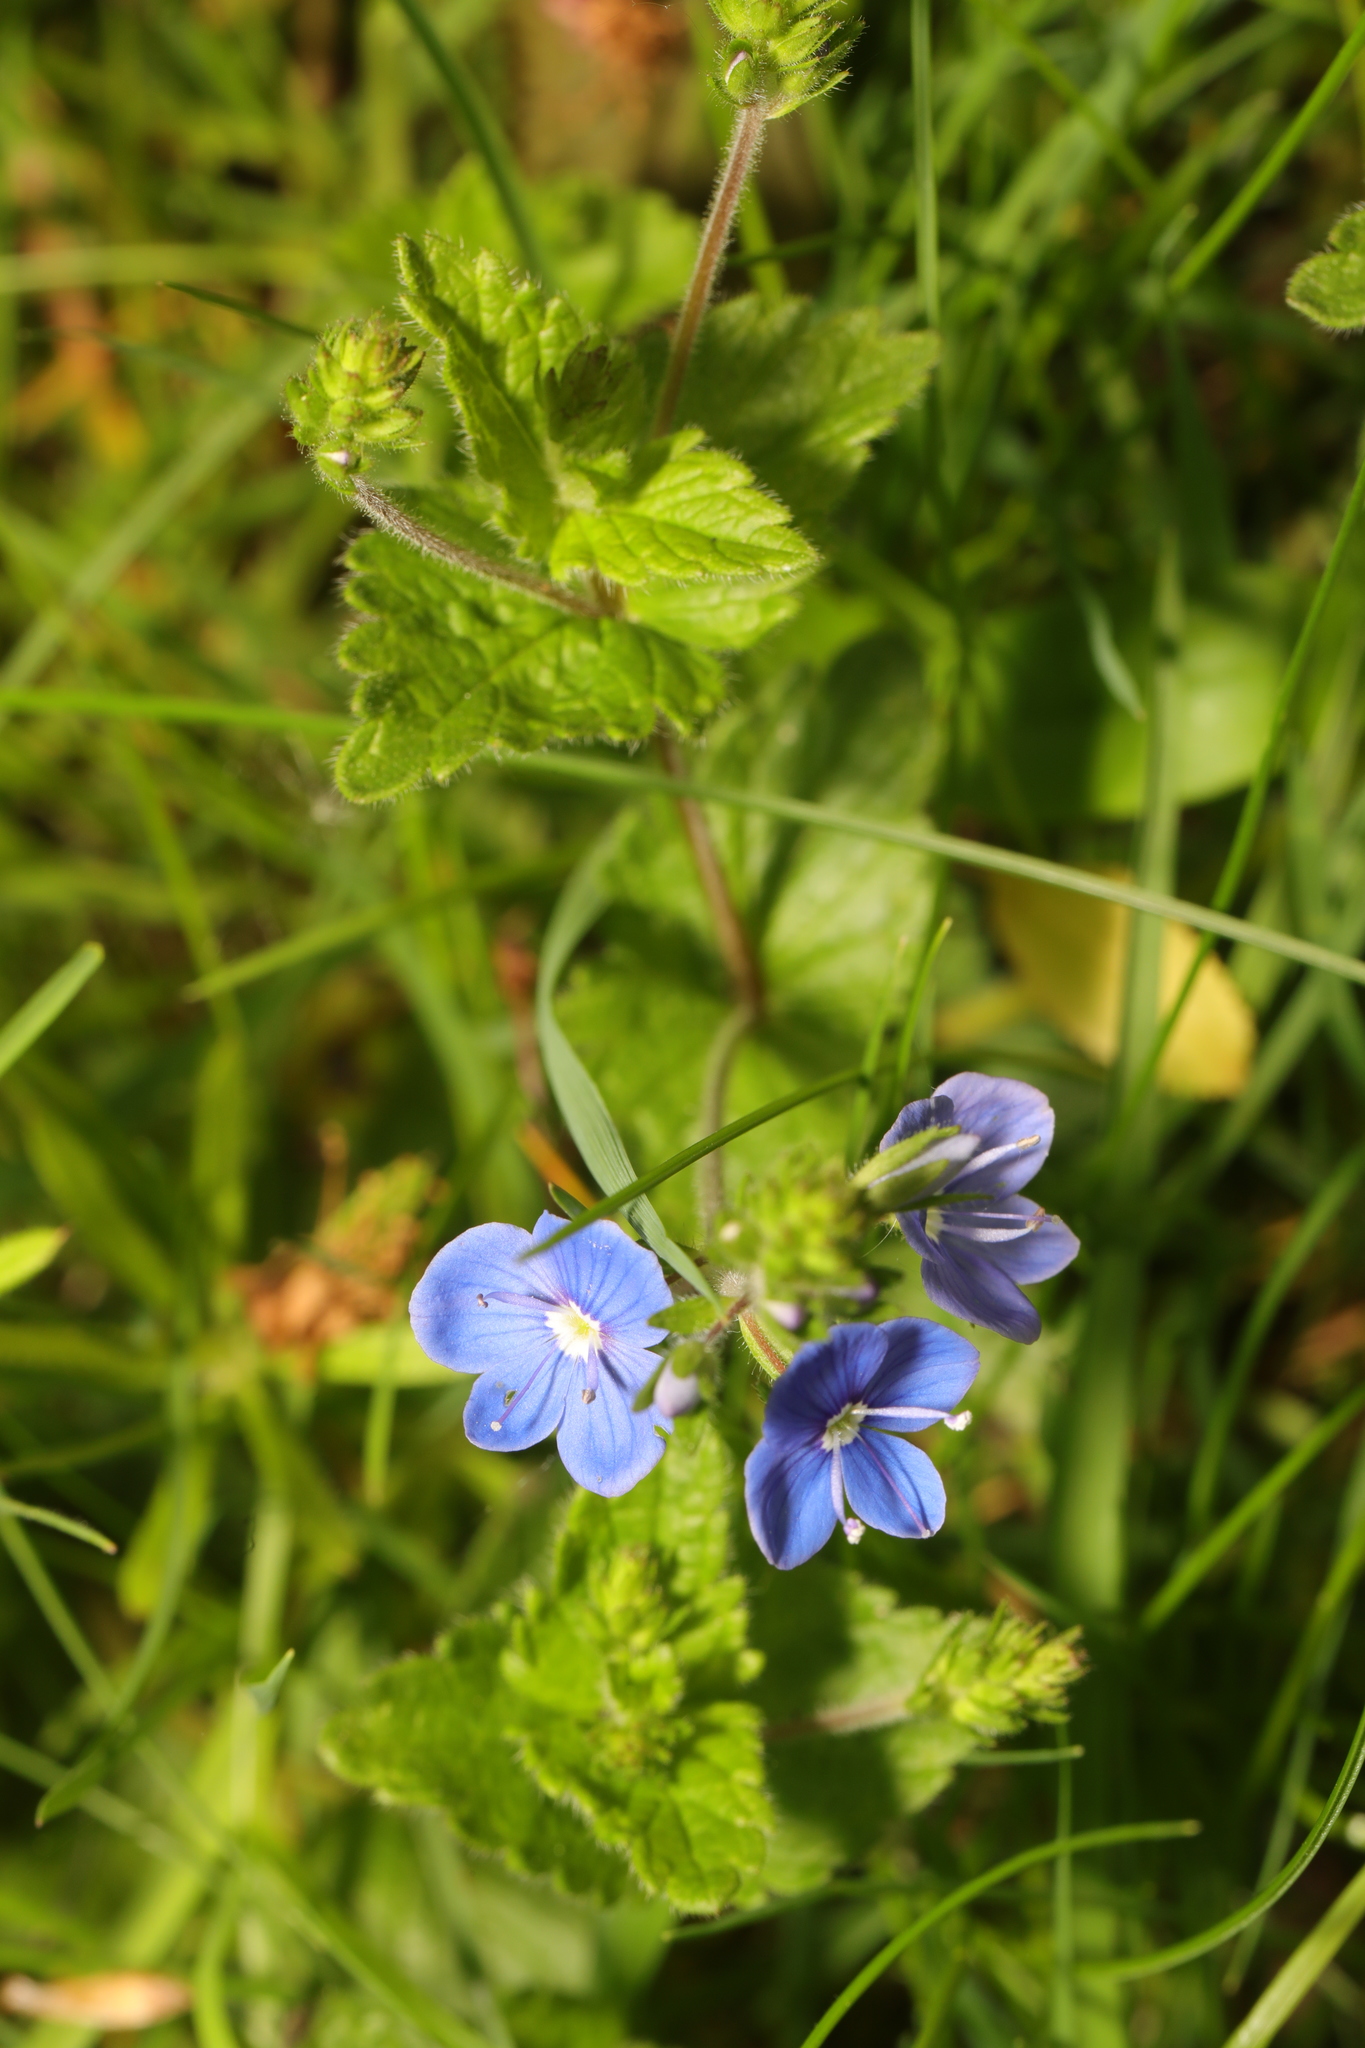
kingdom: Plantae
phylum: Tracheophyta
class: Magnoliopsida
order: Lamiales
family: Plantaginaceae
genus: Veronica
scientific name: Veronica chamaedrys
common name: Germander speedwell
